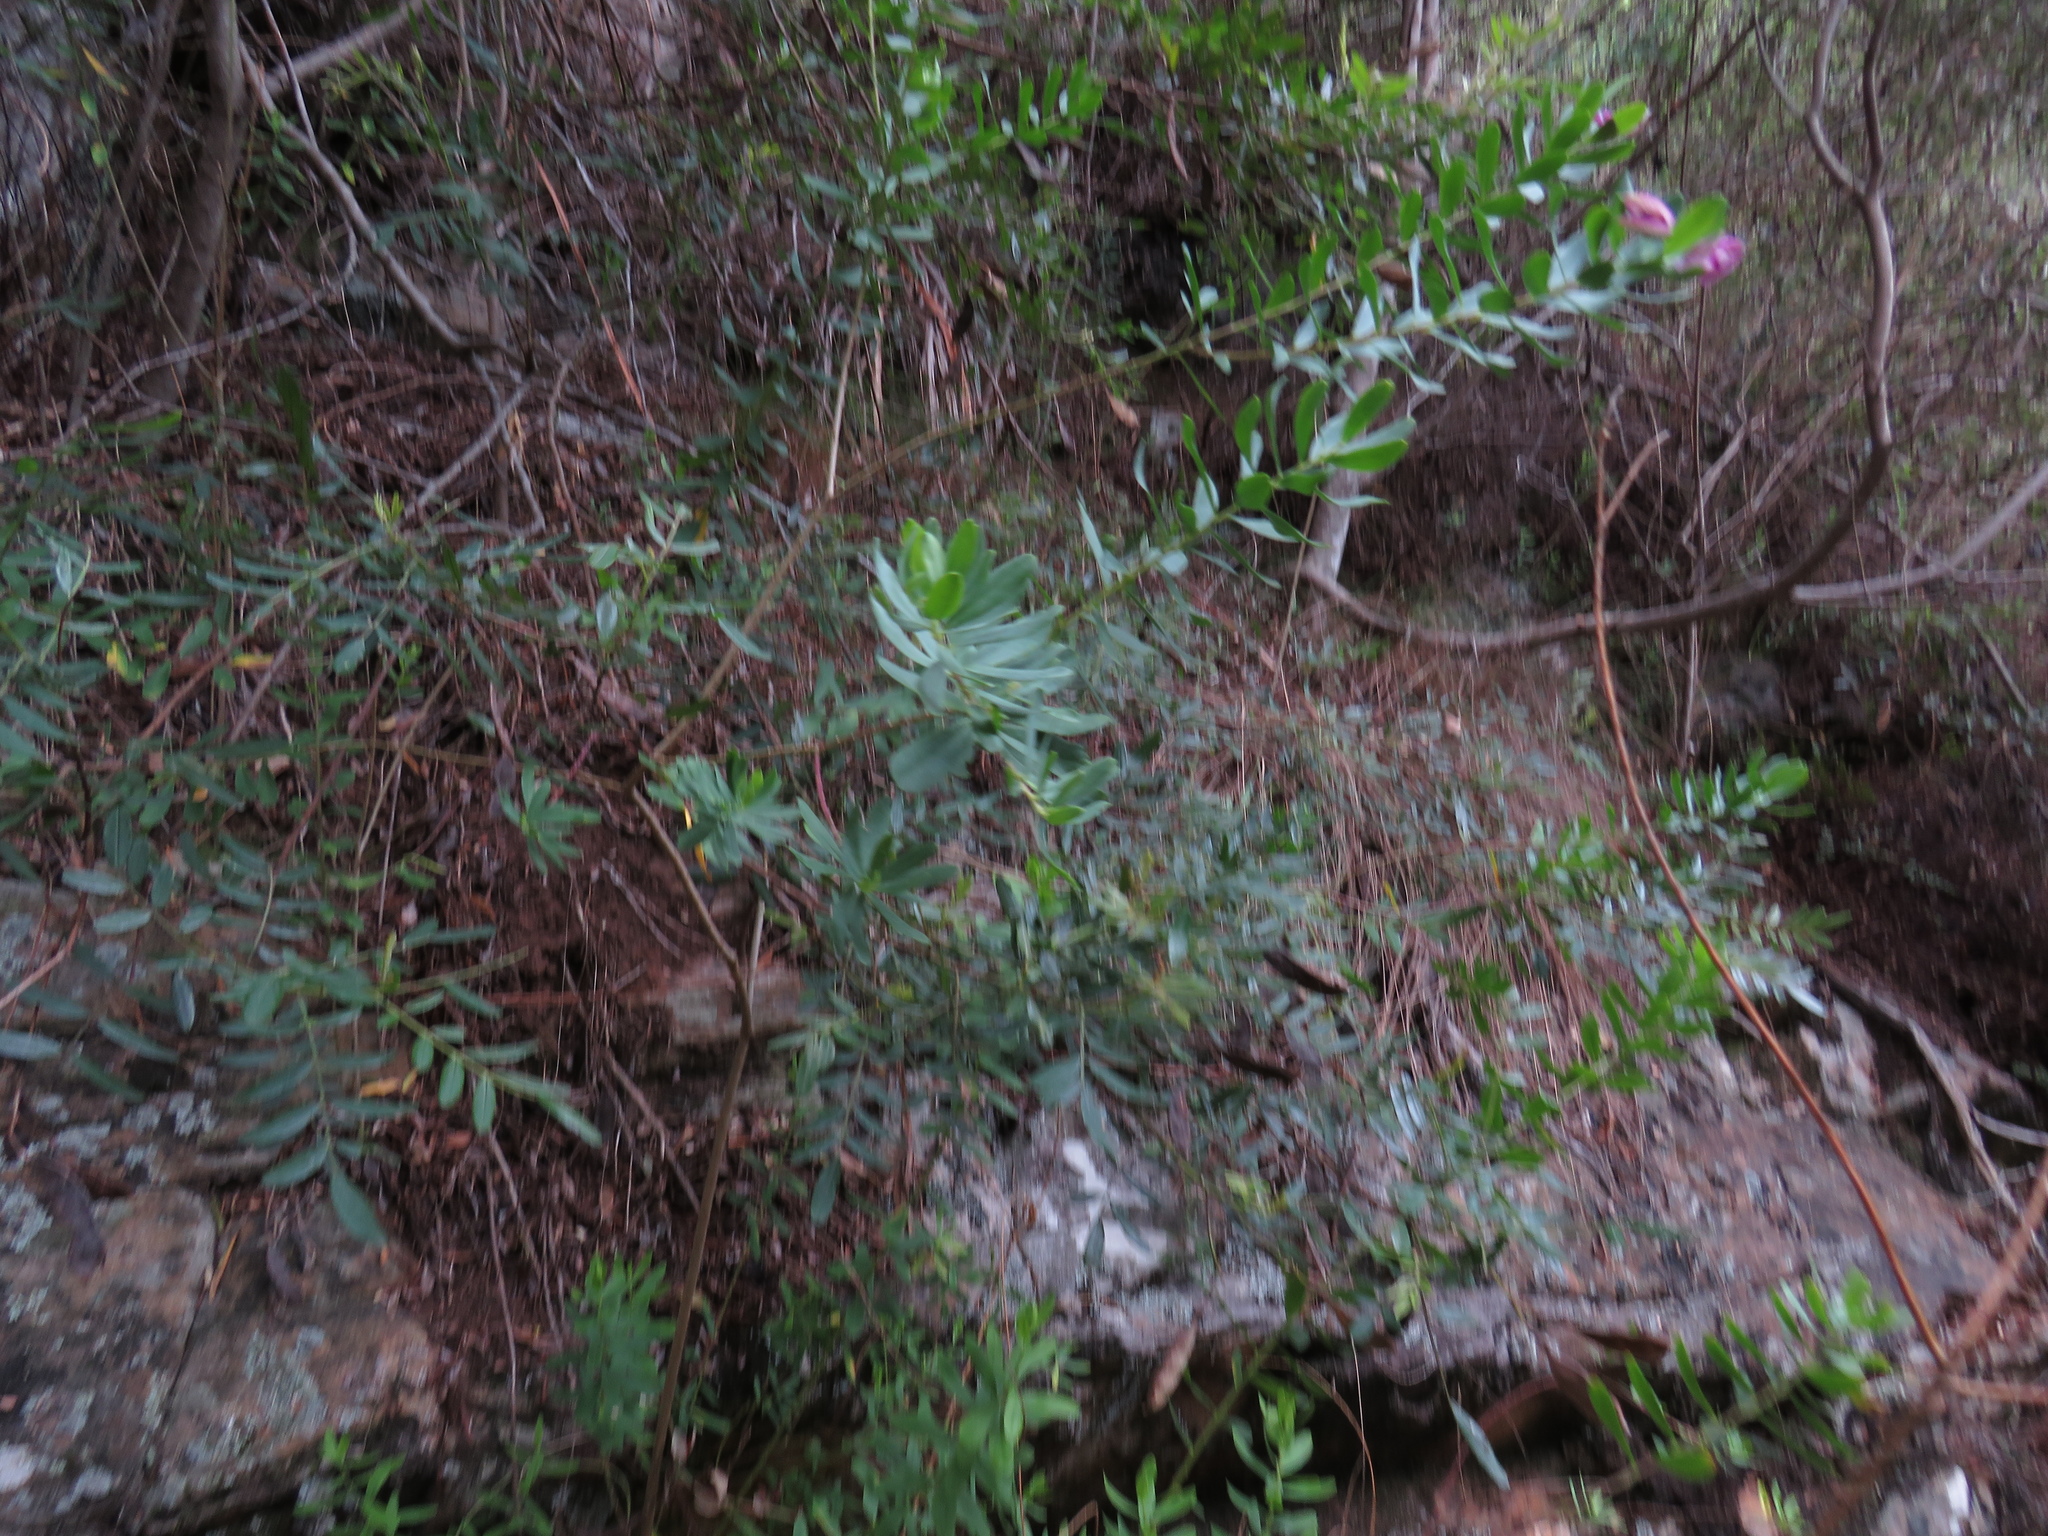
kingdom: Plantae
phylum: Tracheophyta
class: Magnoliopsida
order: Fabales
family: Polygalaceae
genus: Polygala
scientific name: Polygala myrtifolia
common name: Myrtle-leaf milkwort
